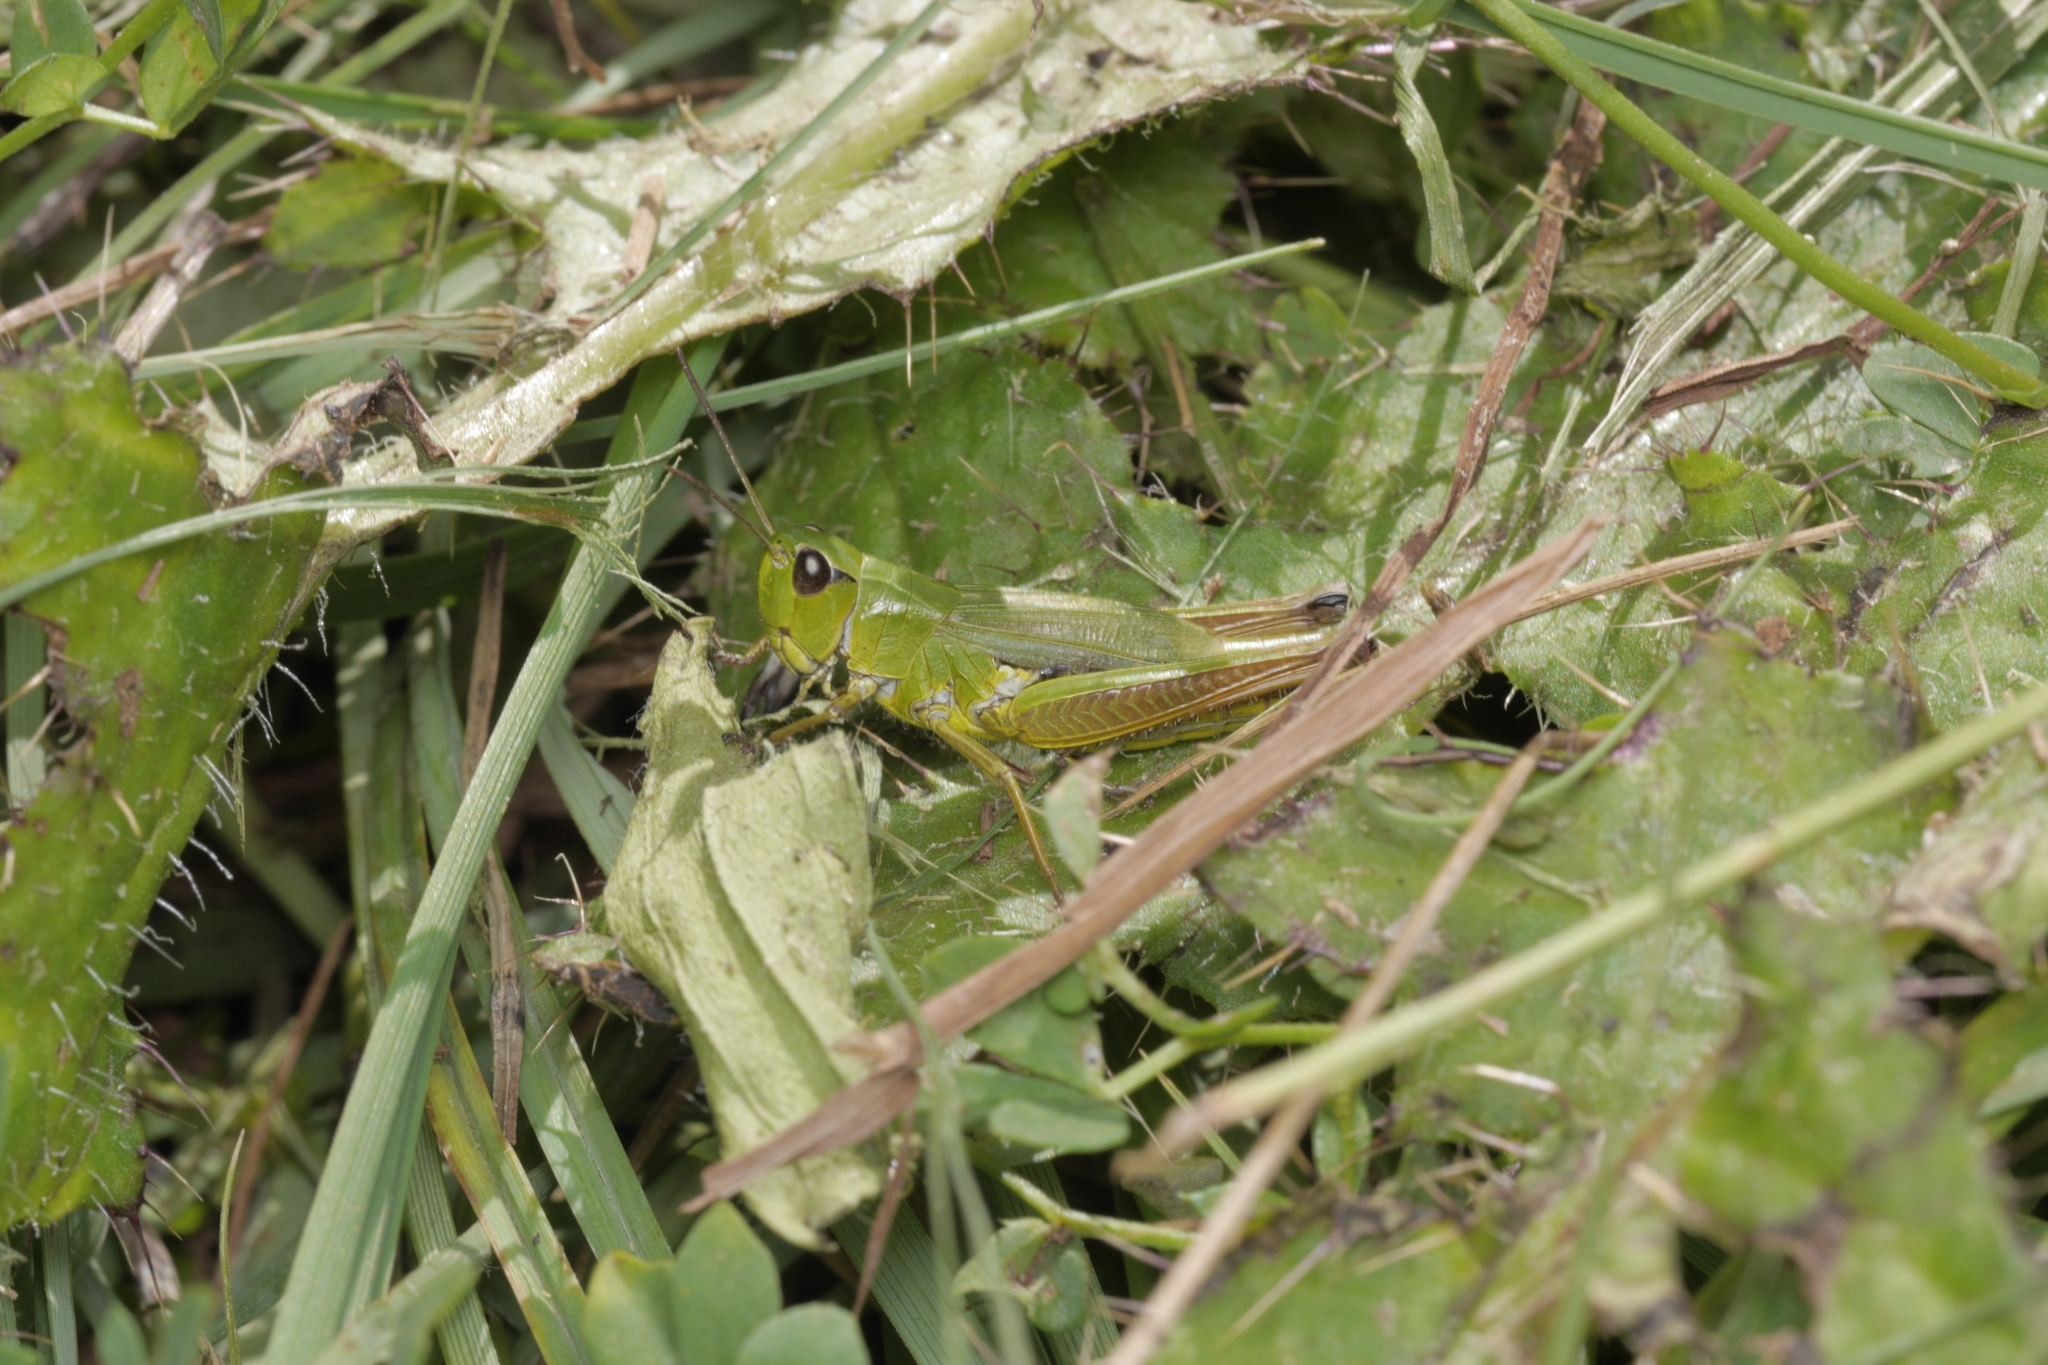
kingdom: Animalia
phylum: Arthropoda
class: Insecta
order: Orthoptera
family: Acrididae
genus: Pseudochorthippus
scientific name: Pseudochorthippus montanus
